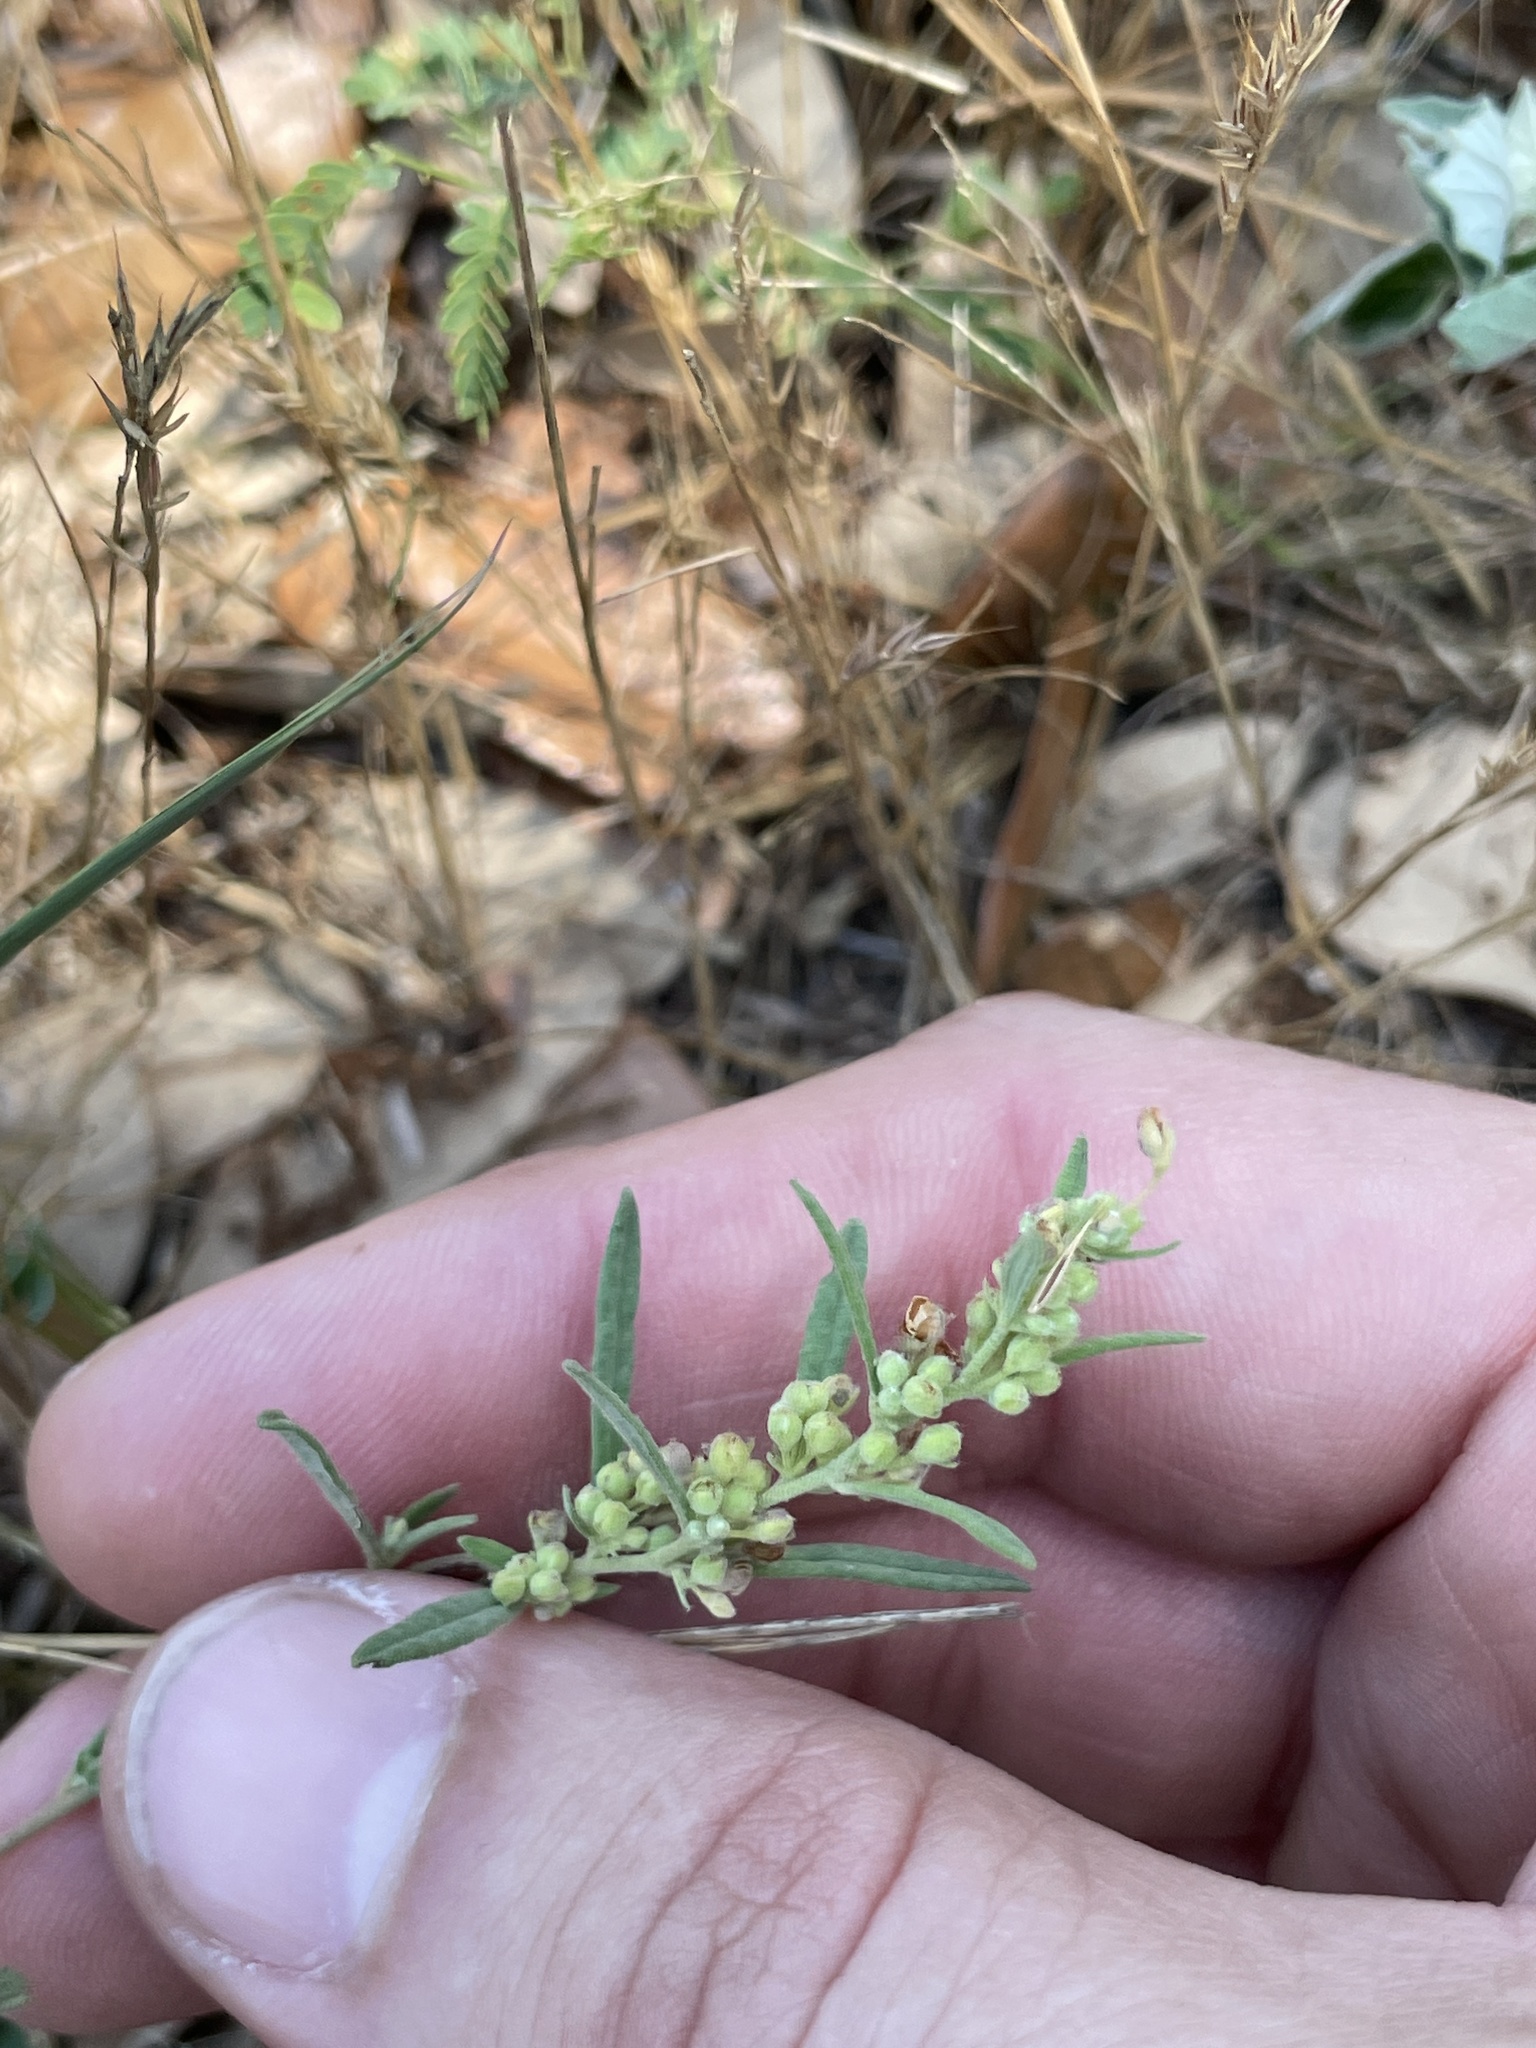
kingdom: Plantae
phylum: Tracheophyta
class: Magnoliopsida
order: Malvales
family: Cistaceae
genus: Crocanthemum
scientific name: Crocanthemum rosmarinifolium
